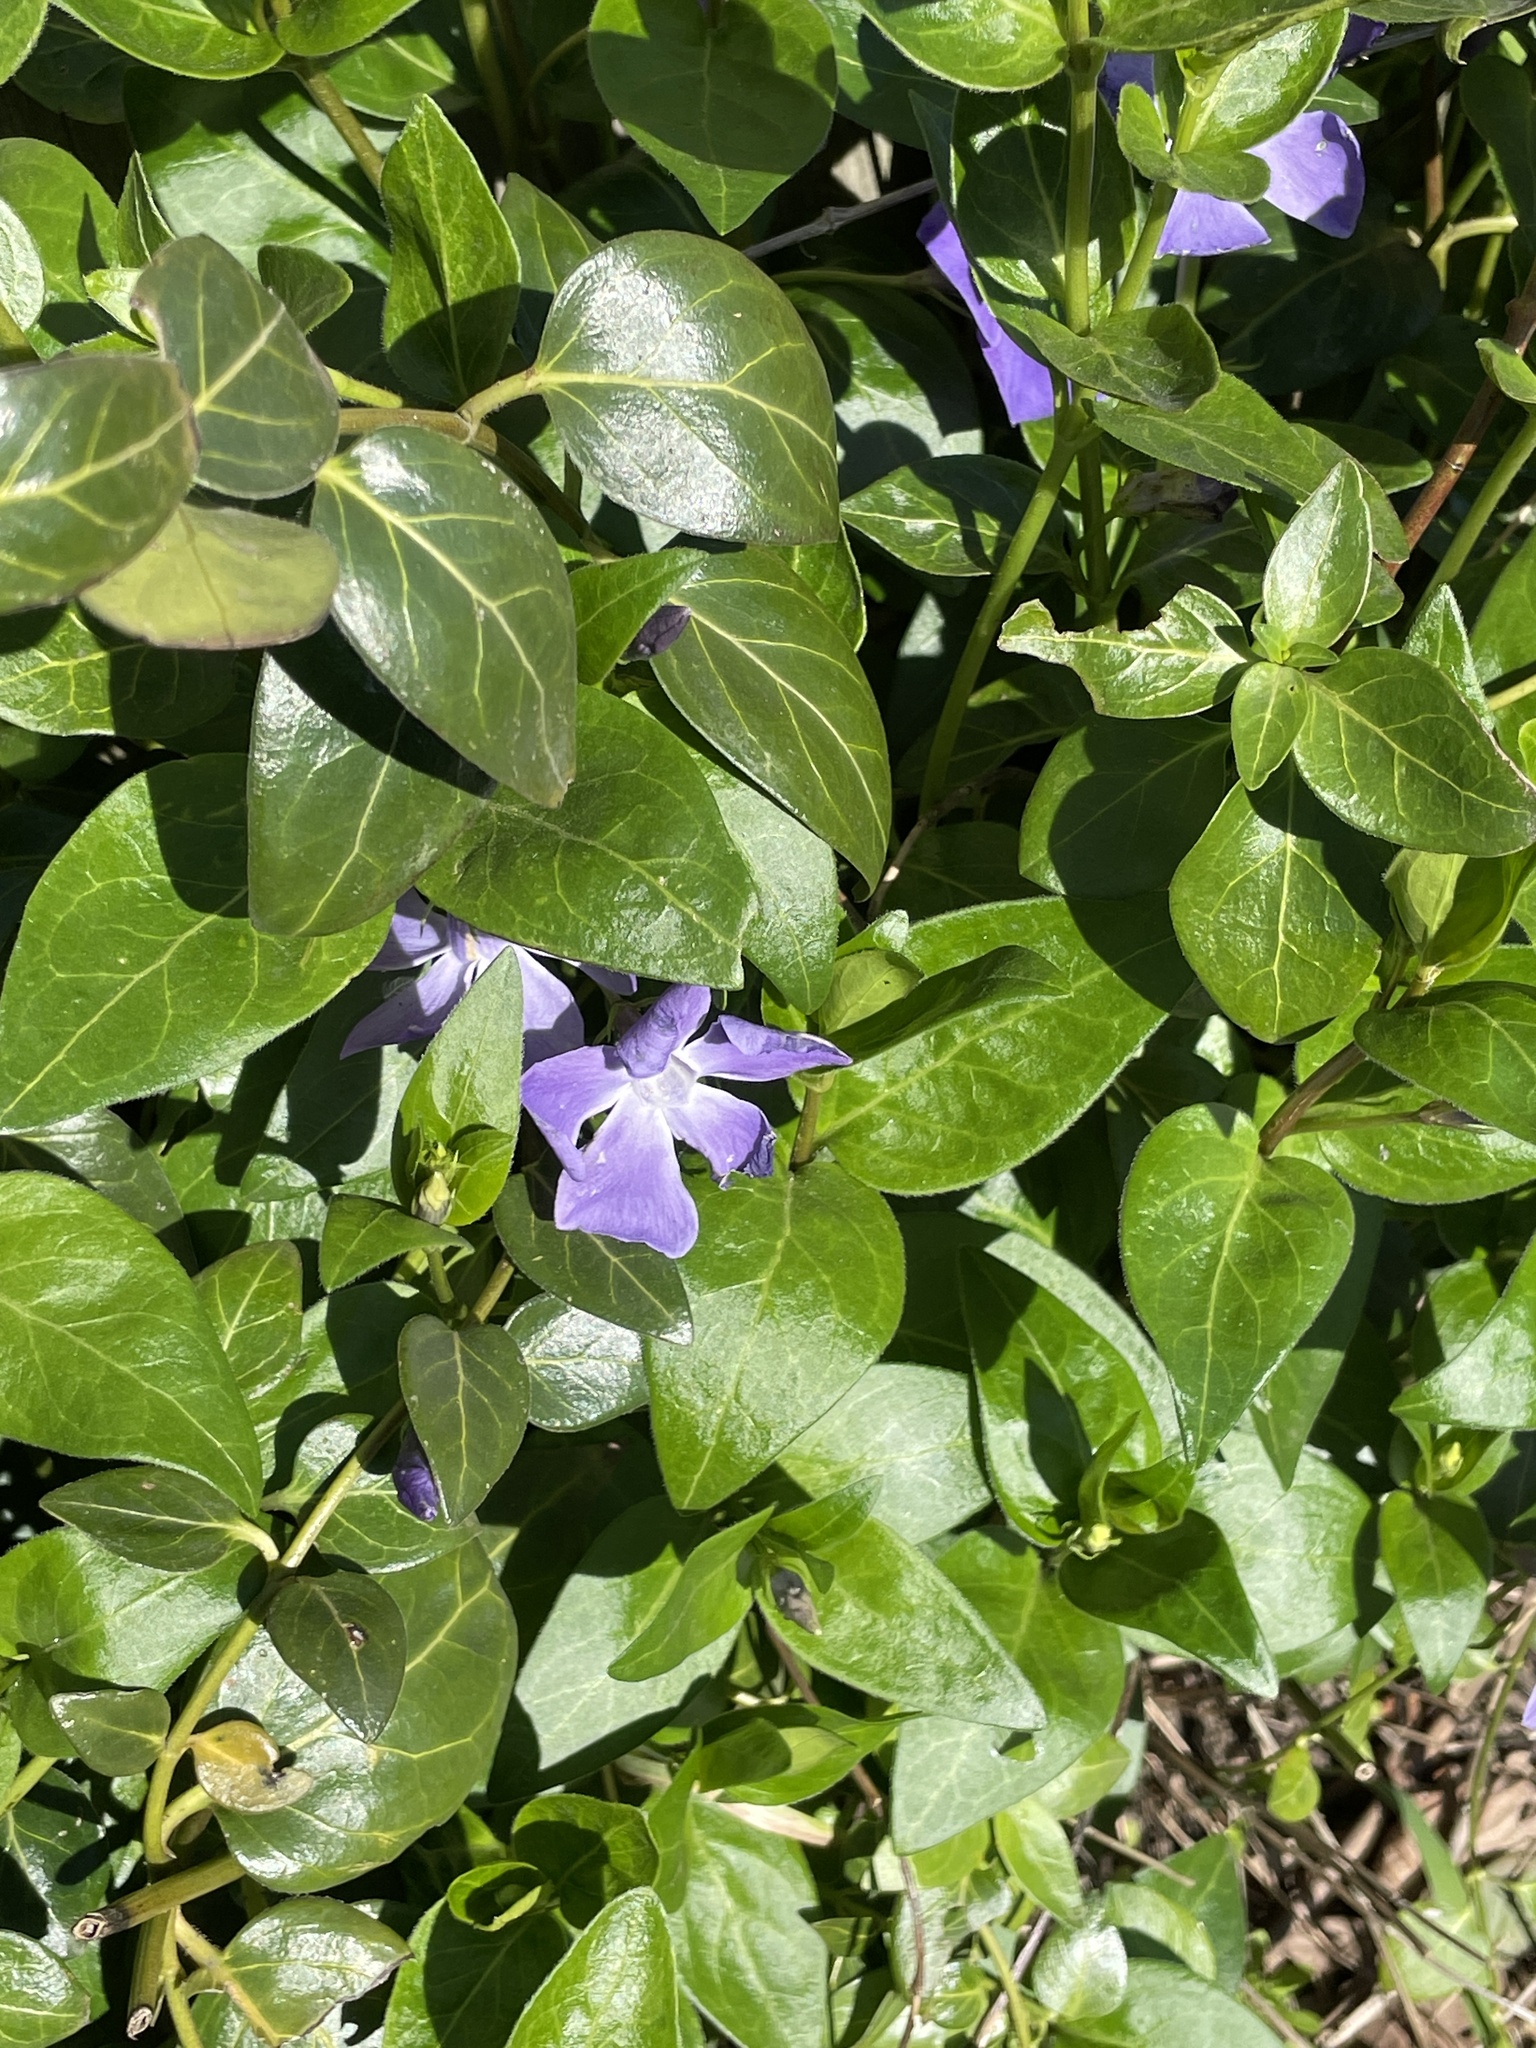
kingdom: Plantae
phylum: Tracheophyta
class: Magnoliopsida
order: Gentianales
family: Apocynaceae
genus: Vinca
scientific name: Vinca major
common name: Greater periwinkle
